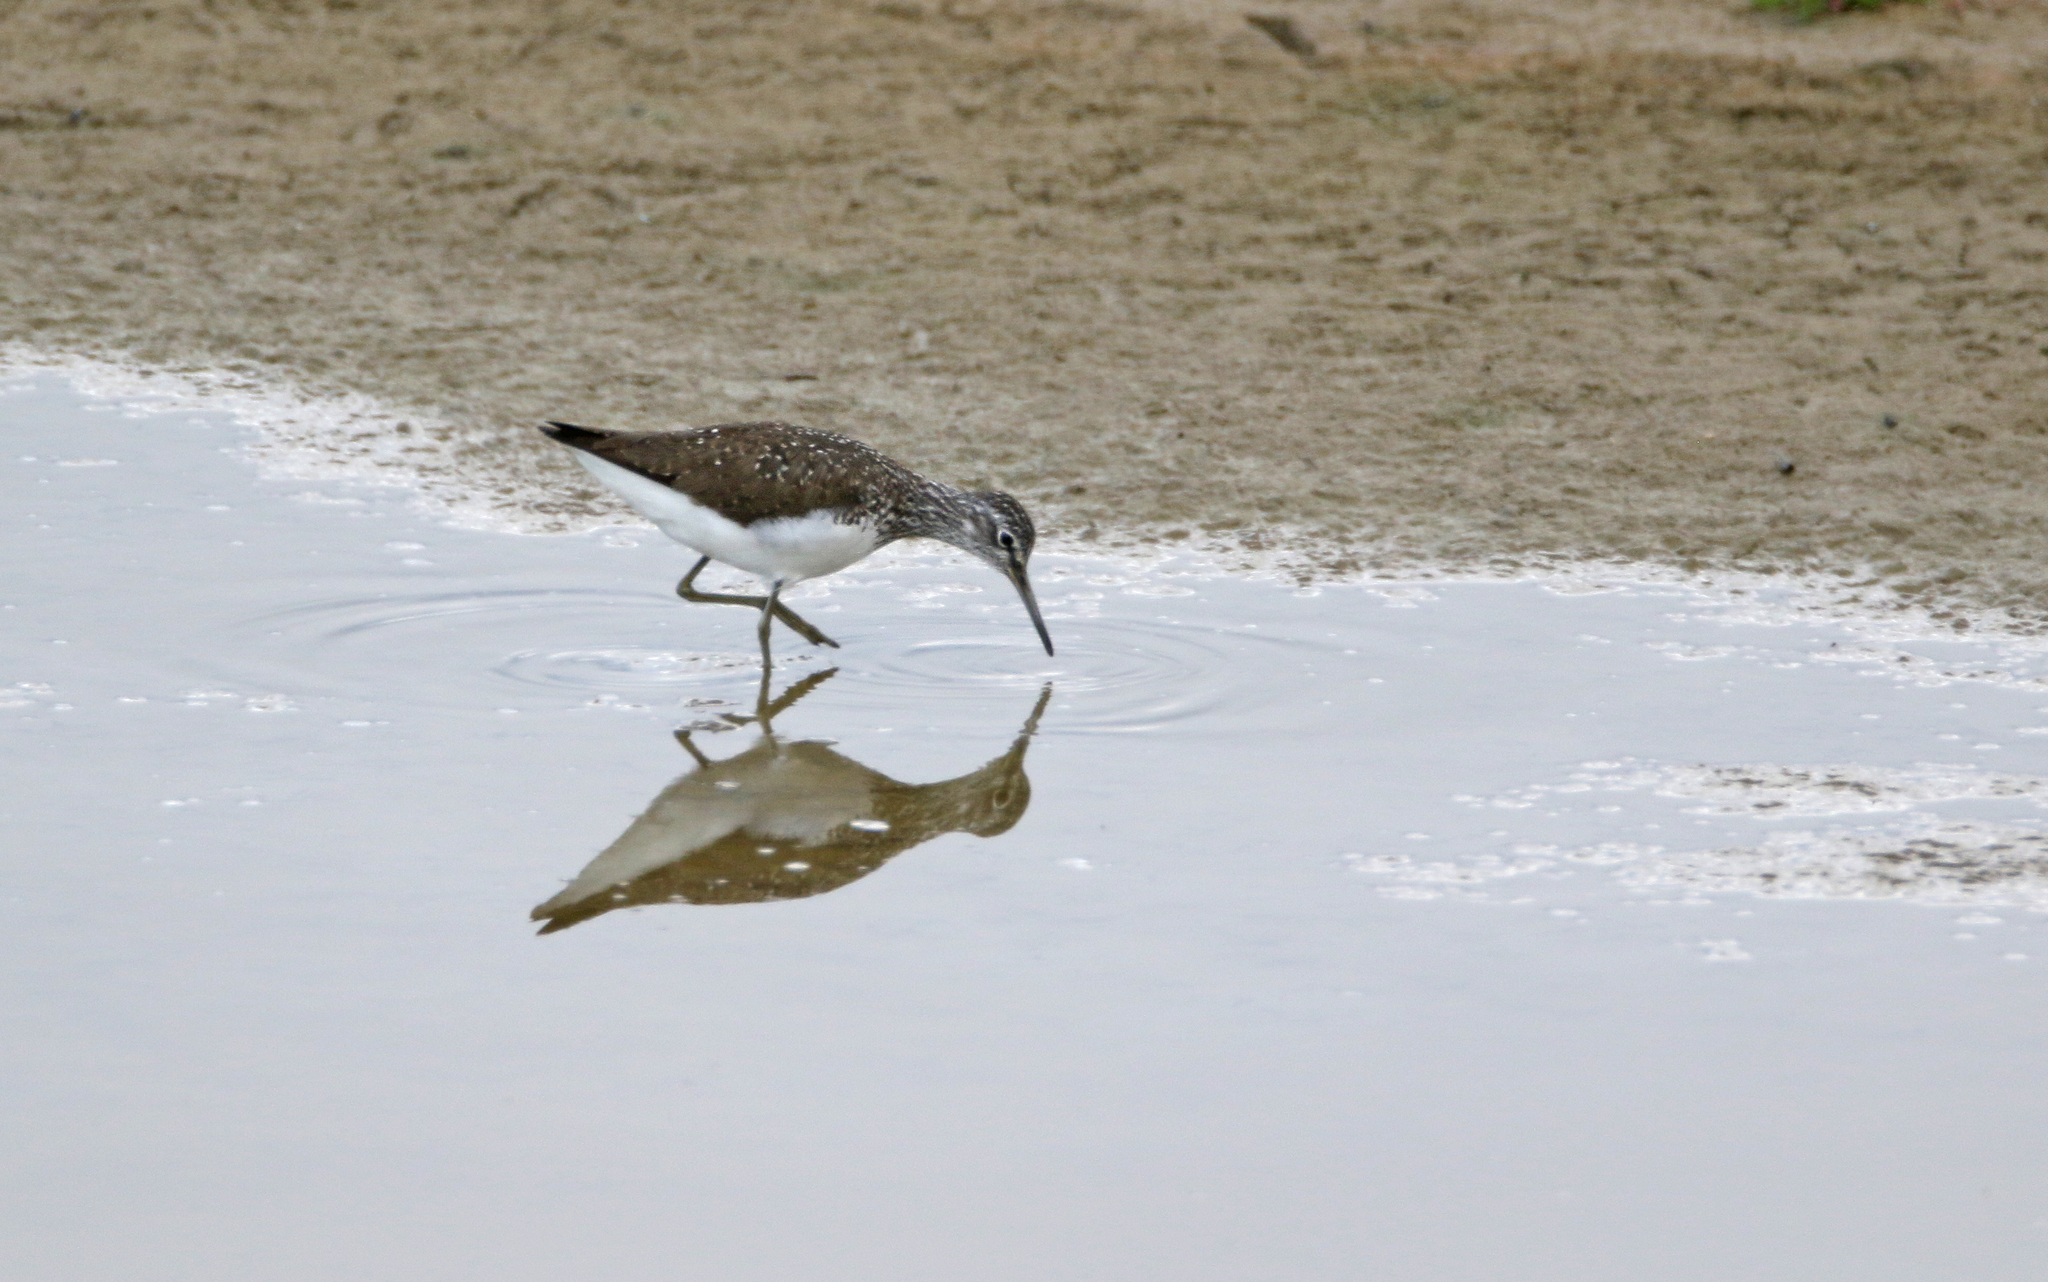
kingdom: Animalia
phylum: Chordata
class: Aves
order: Charadriiformes
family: Scolopacidae
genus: Tringa
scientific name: Tringa ochropus
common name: Green sandpiper
